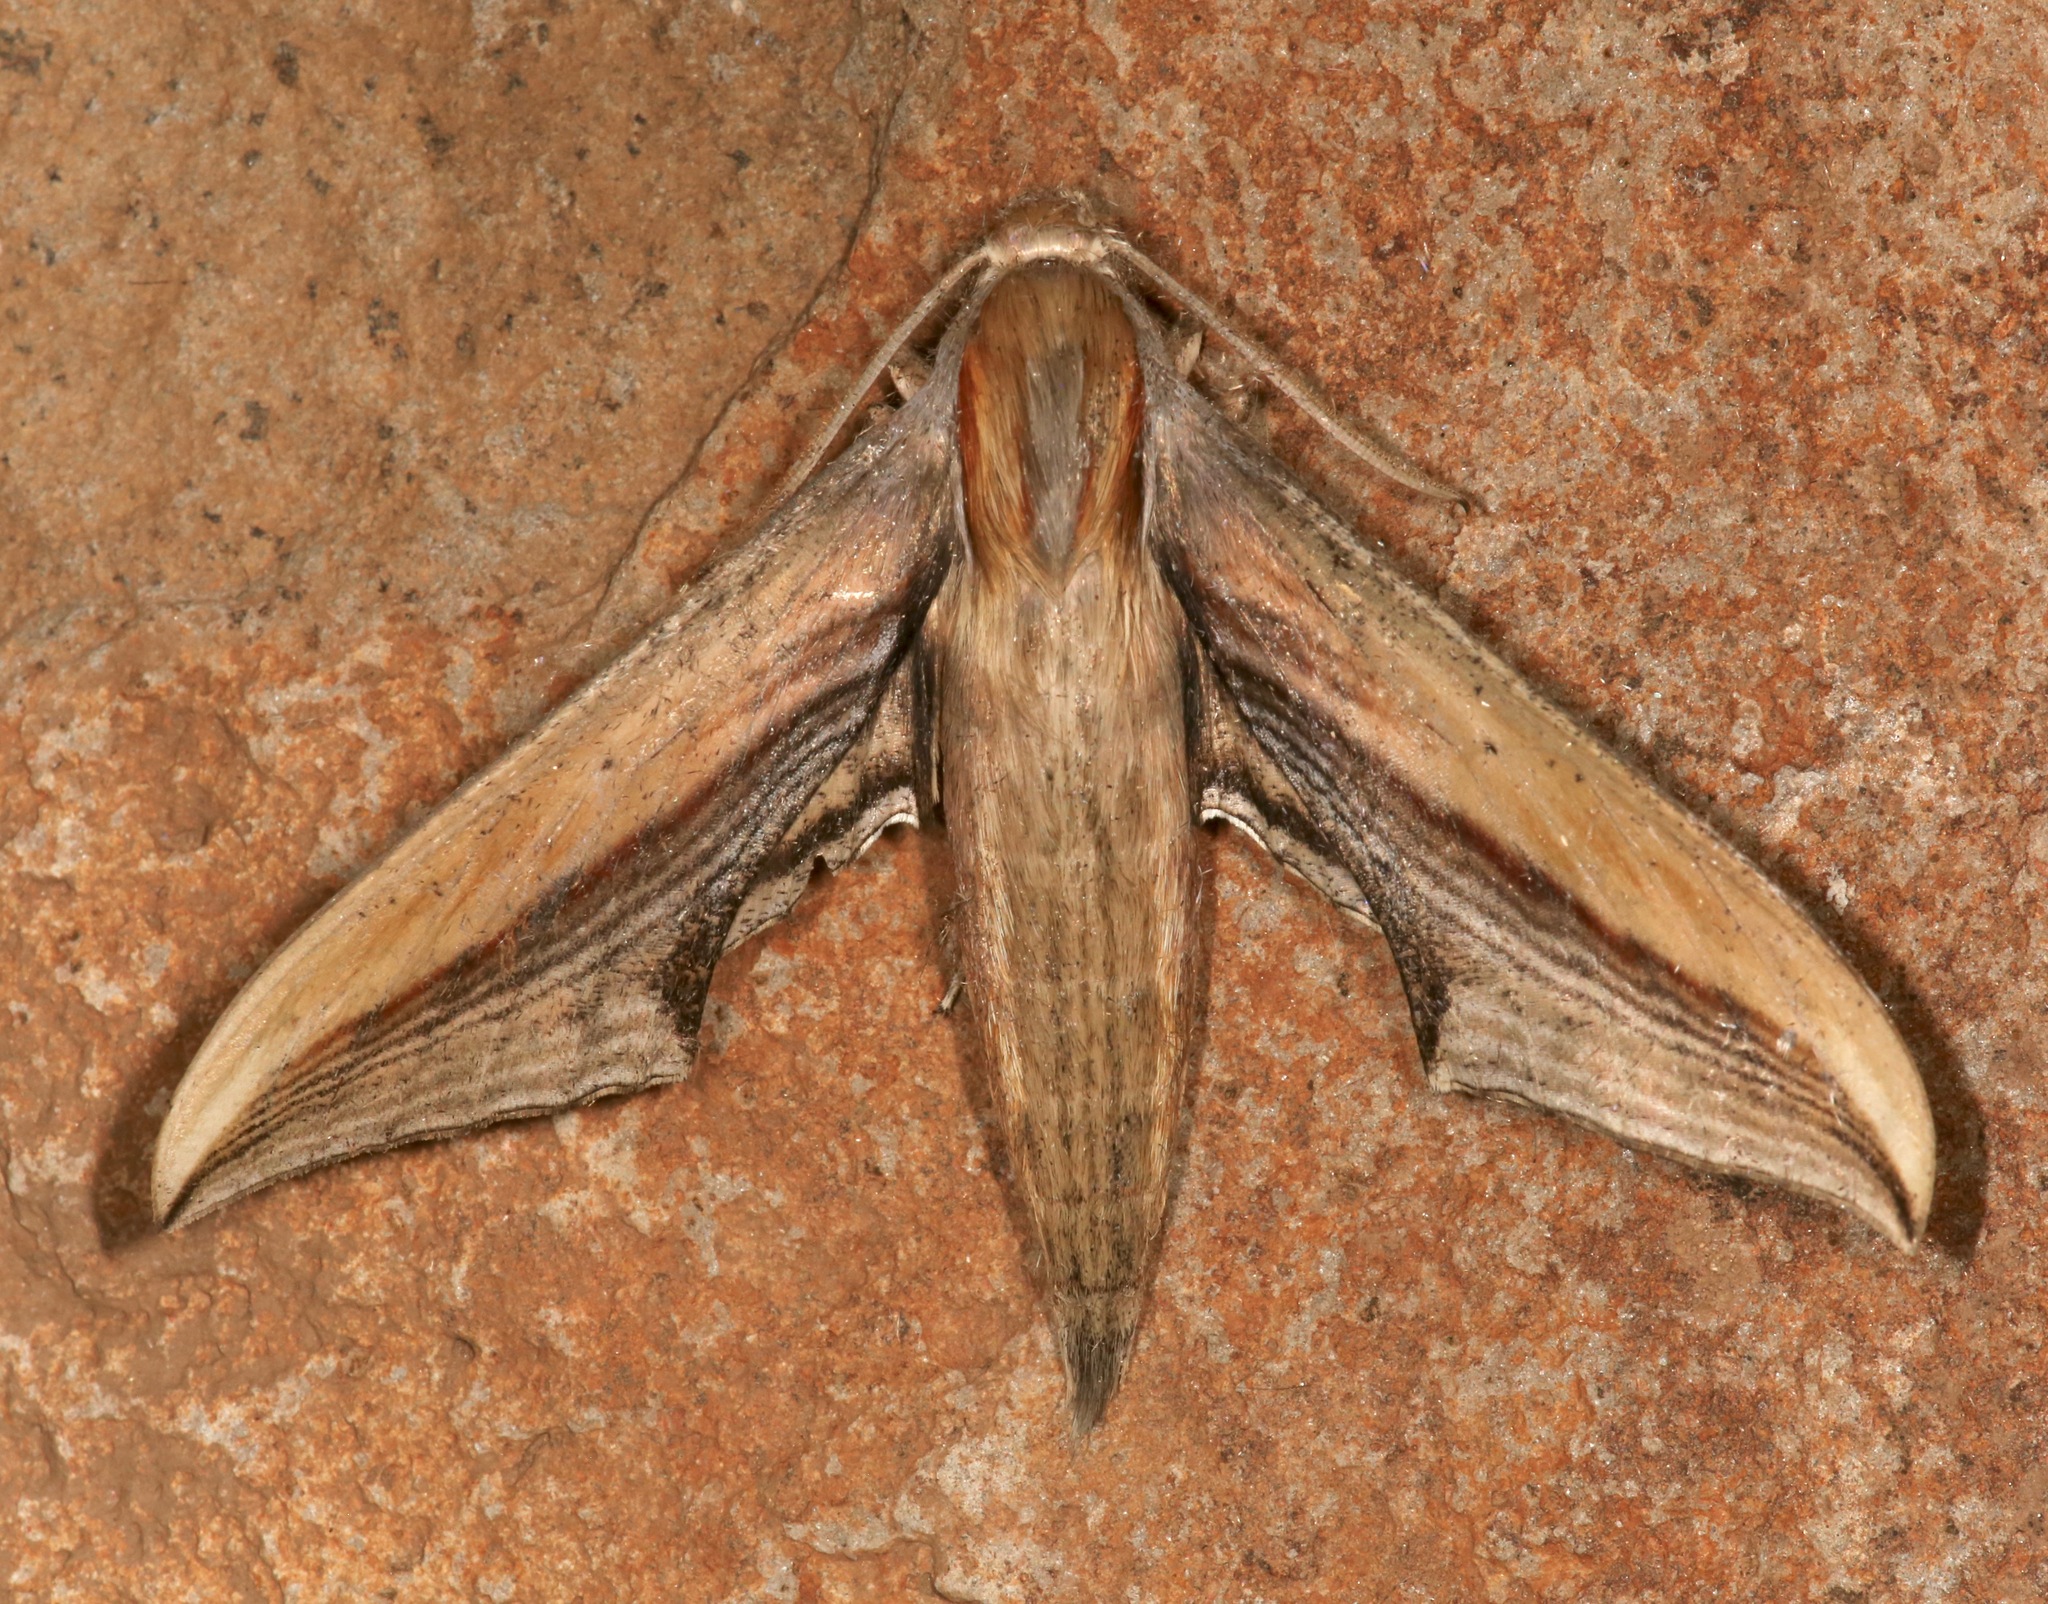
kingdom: Animalia
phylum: Arthropoda
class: Insecta
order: Lepidoptera
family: Sphingidae
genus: Xylophanes
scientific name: Xylophanes falco
